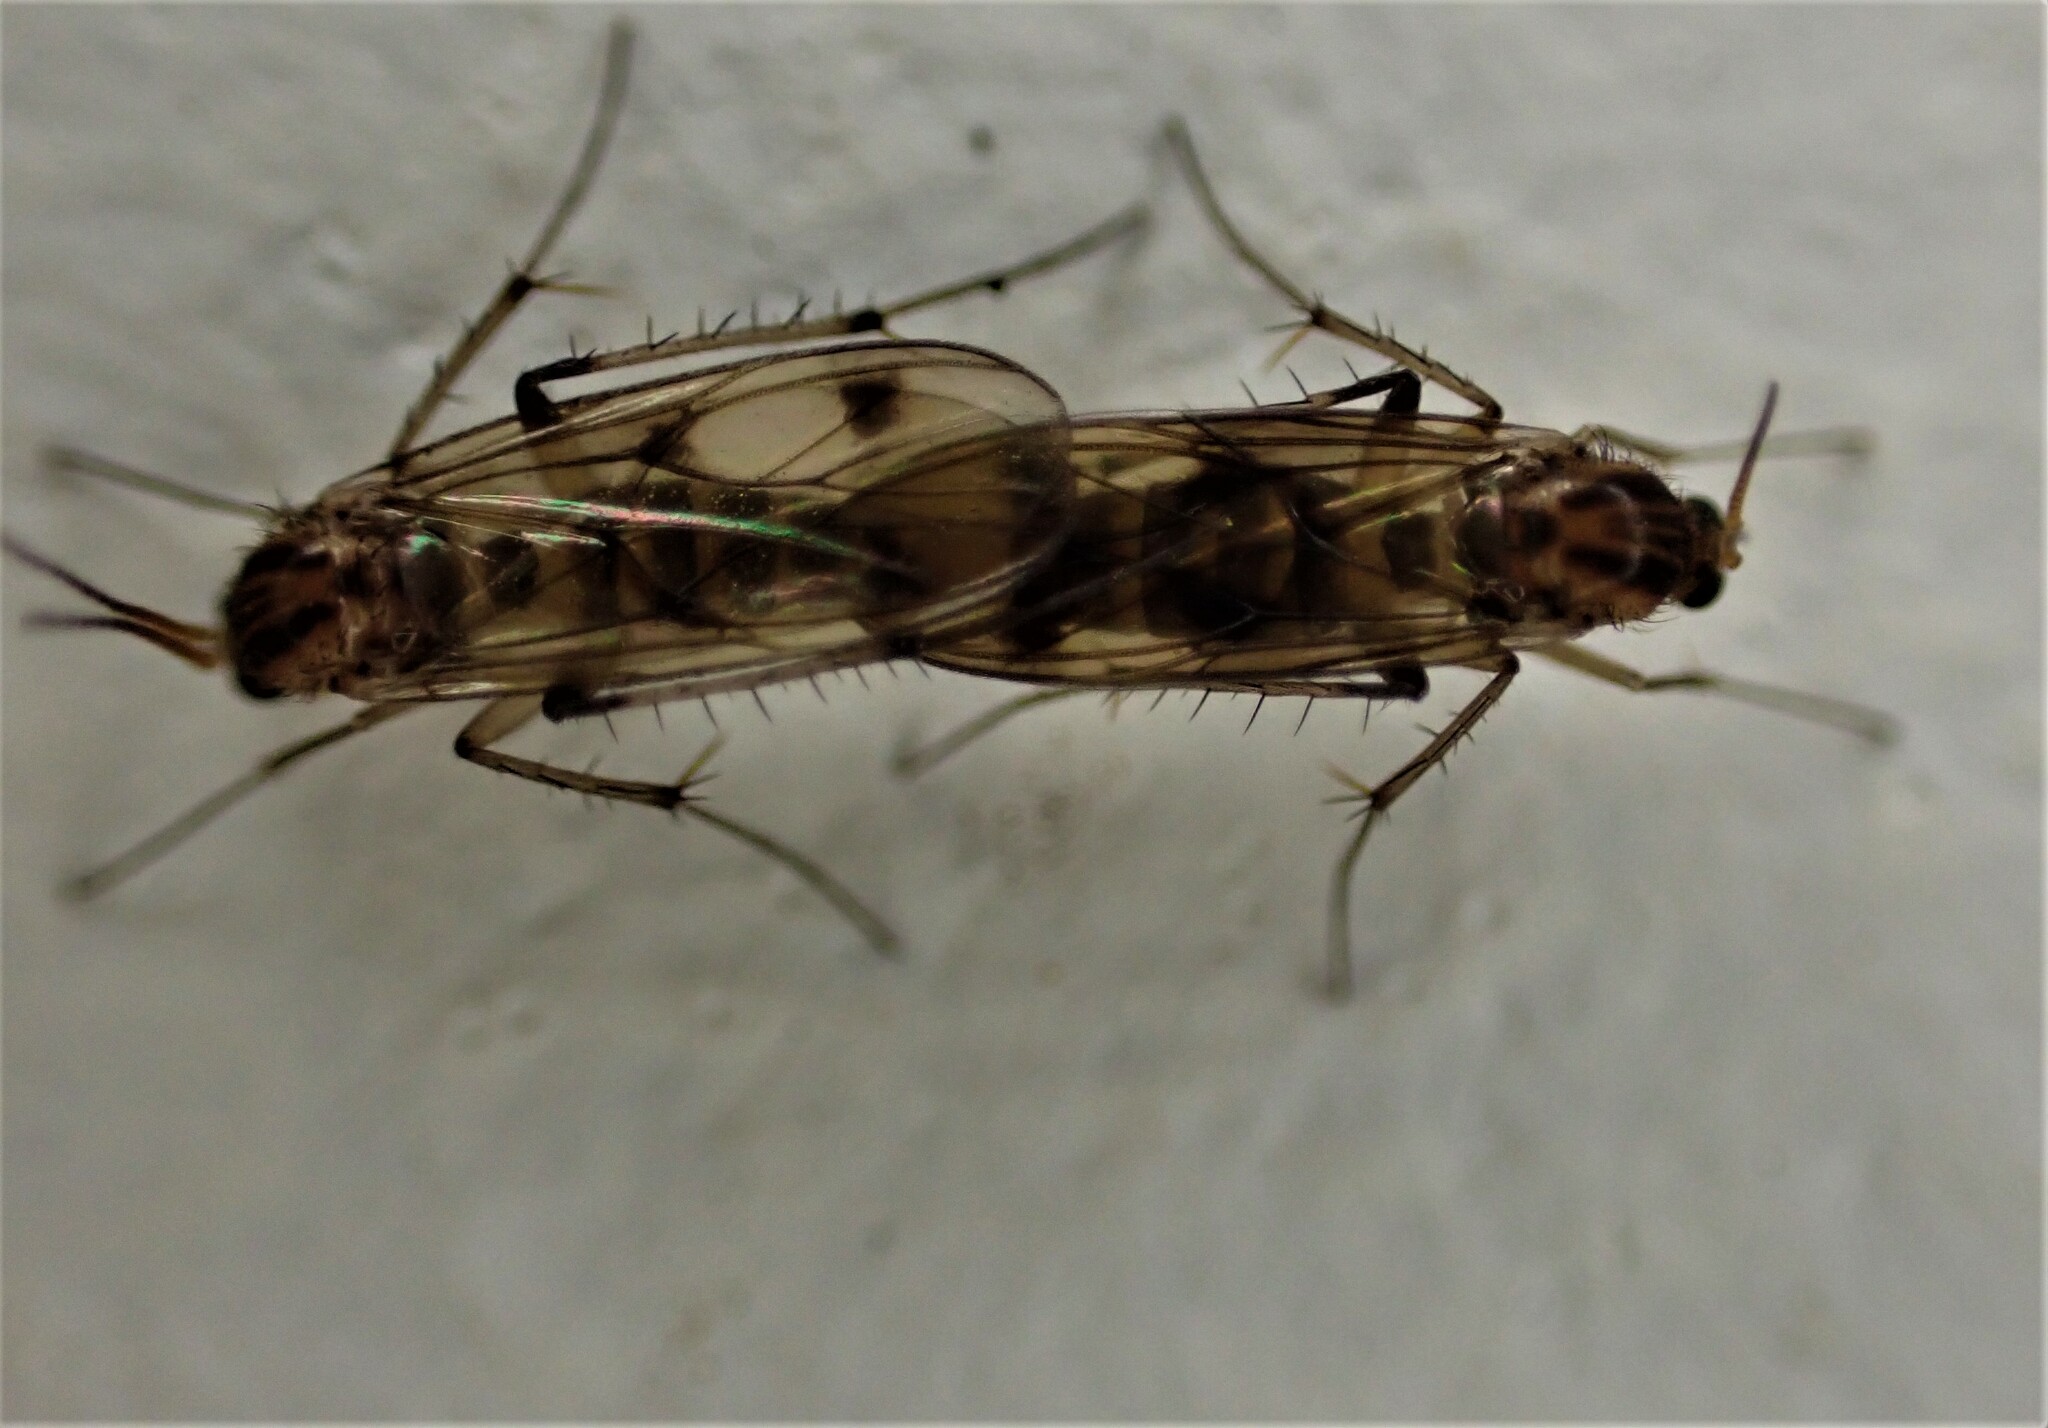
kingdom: Animalia
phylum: Arthropoda
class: Insecta
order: Diptera
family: Mycetophilidae
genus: Anomalomyia
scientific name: Anomalomyia guttata
